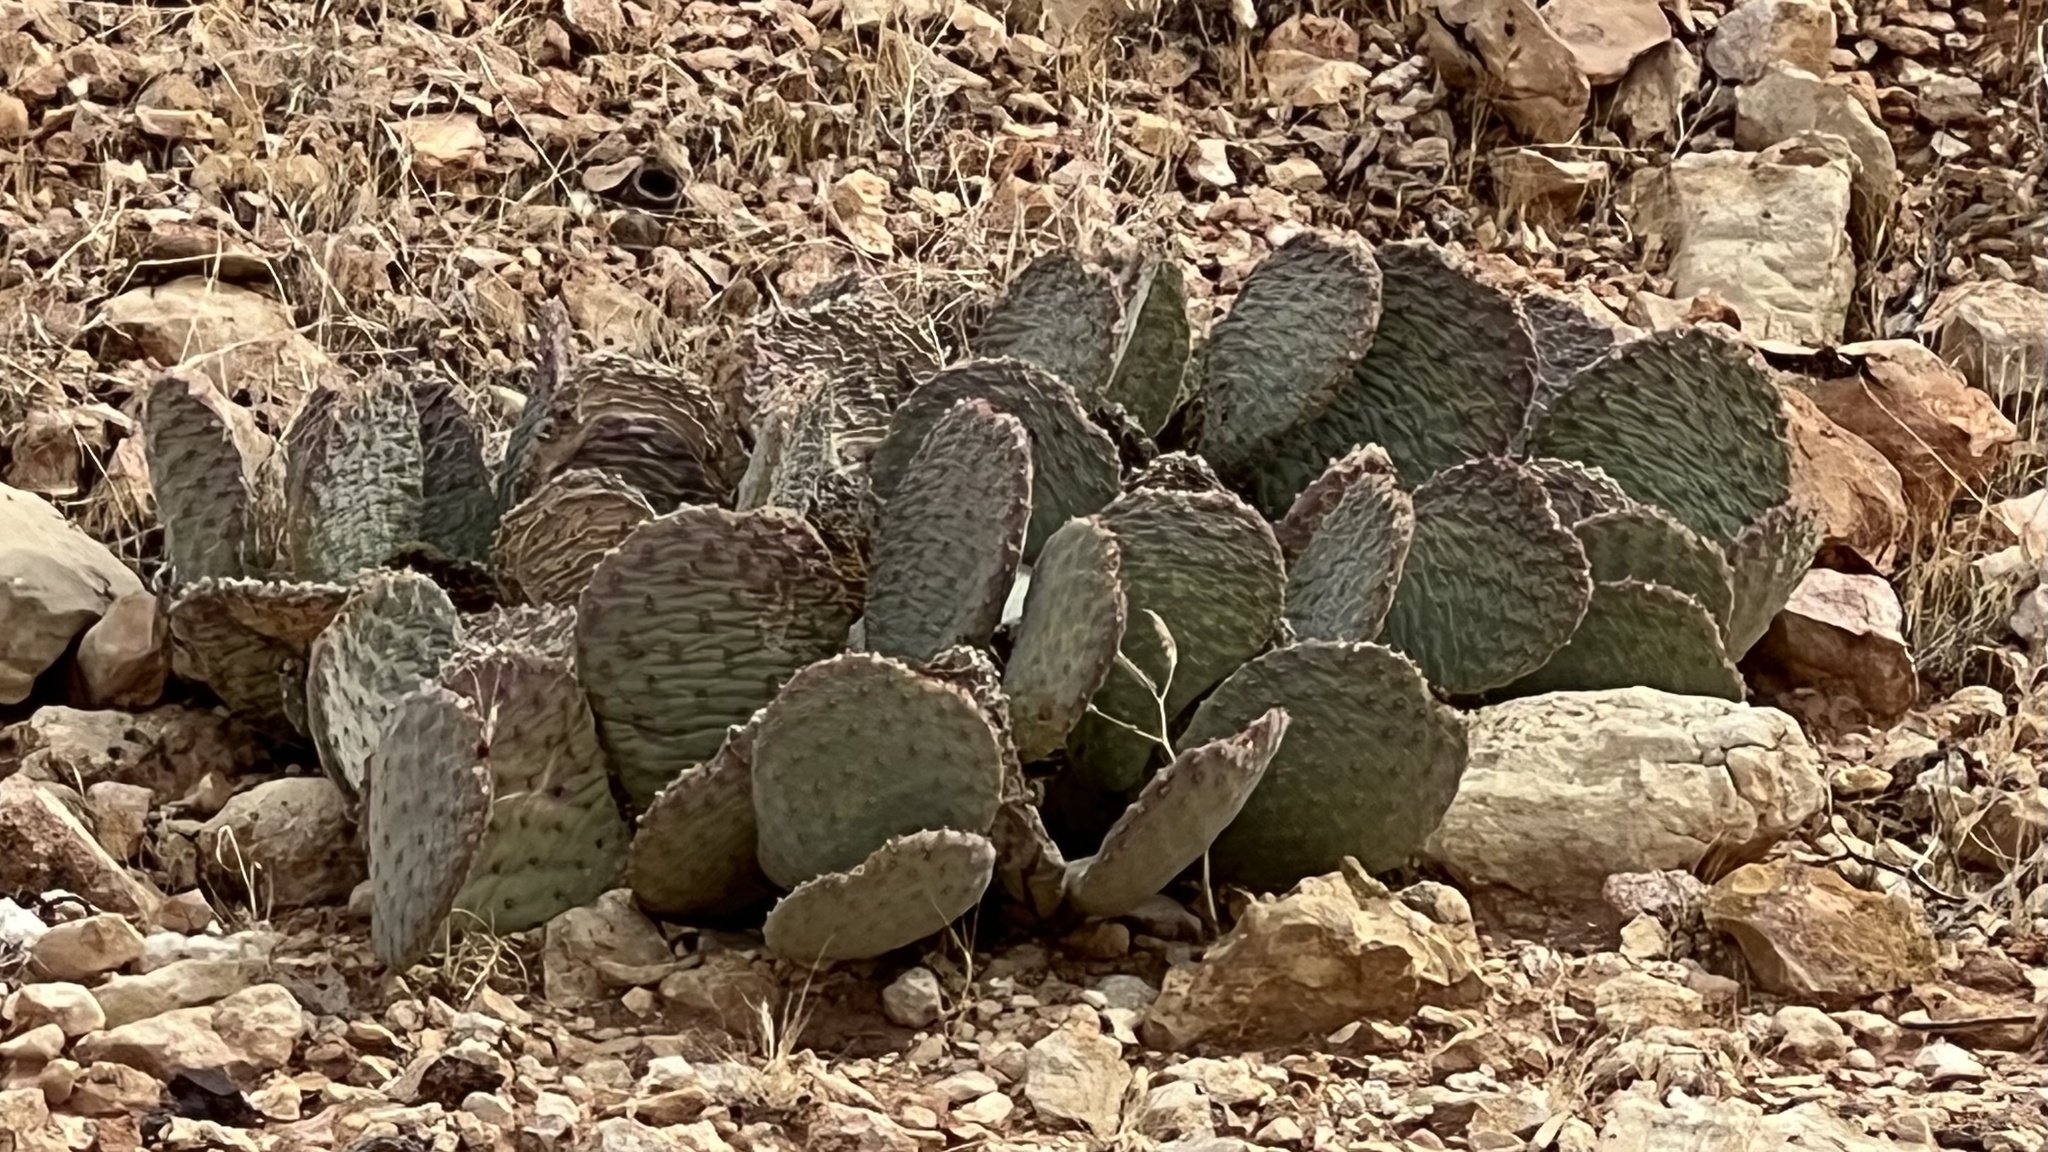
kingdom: Plantae
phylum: Tracheophyta
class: Magnoliopsida
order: Caryophyllales
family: Cactaceae
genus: Opuntia
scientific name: Opuntia basilaris
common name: Beavertail prickly-pear
